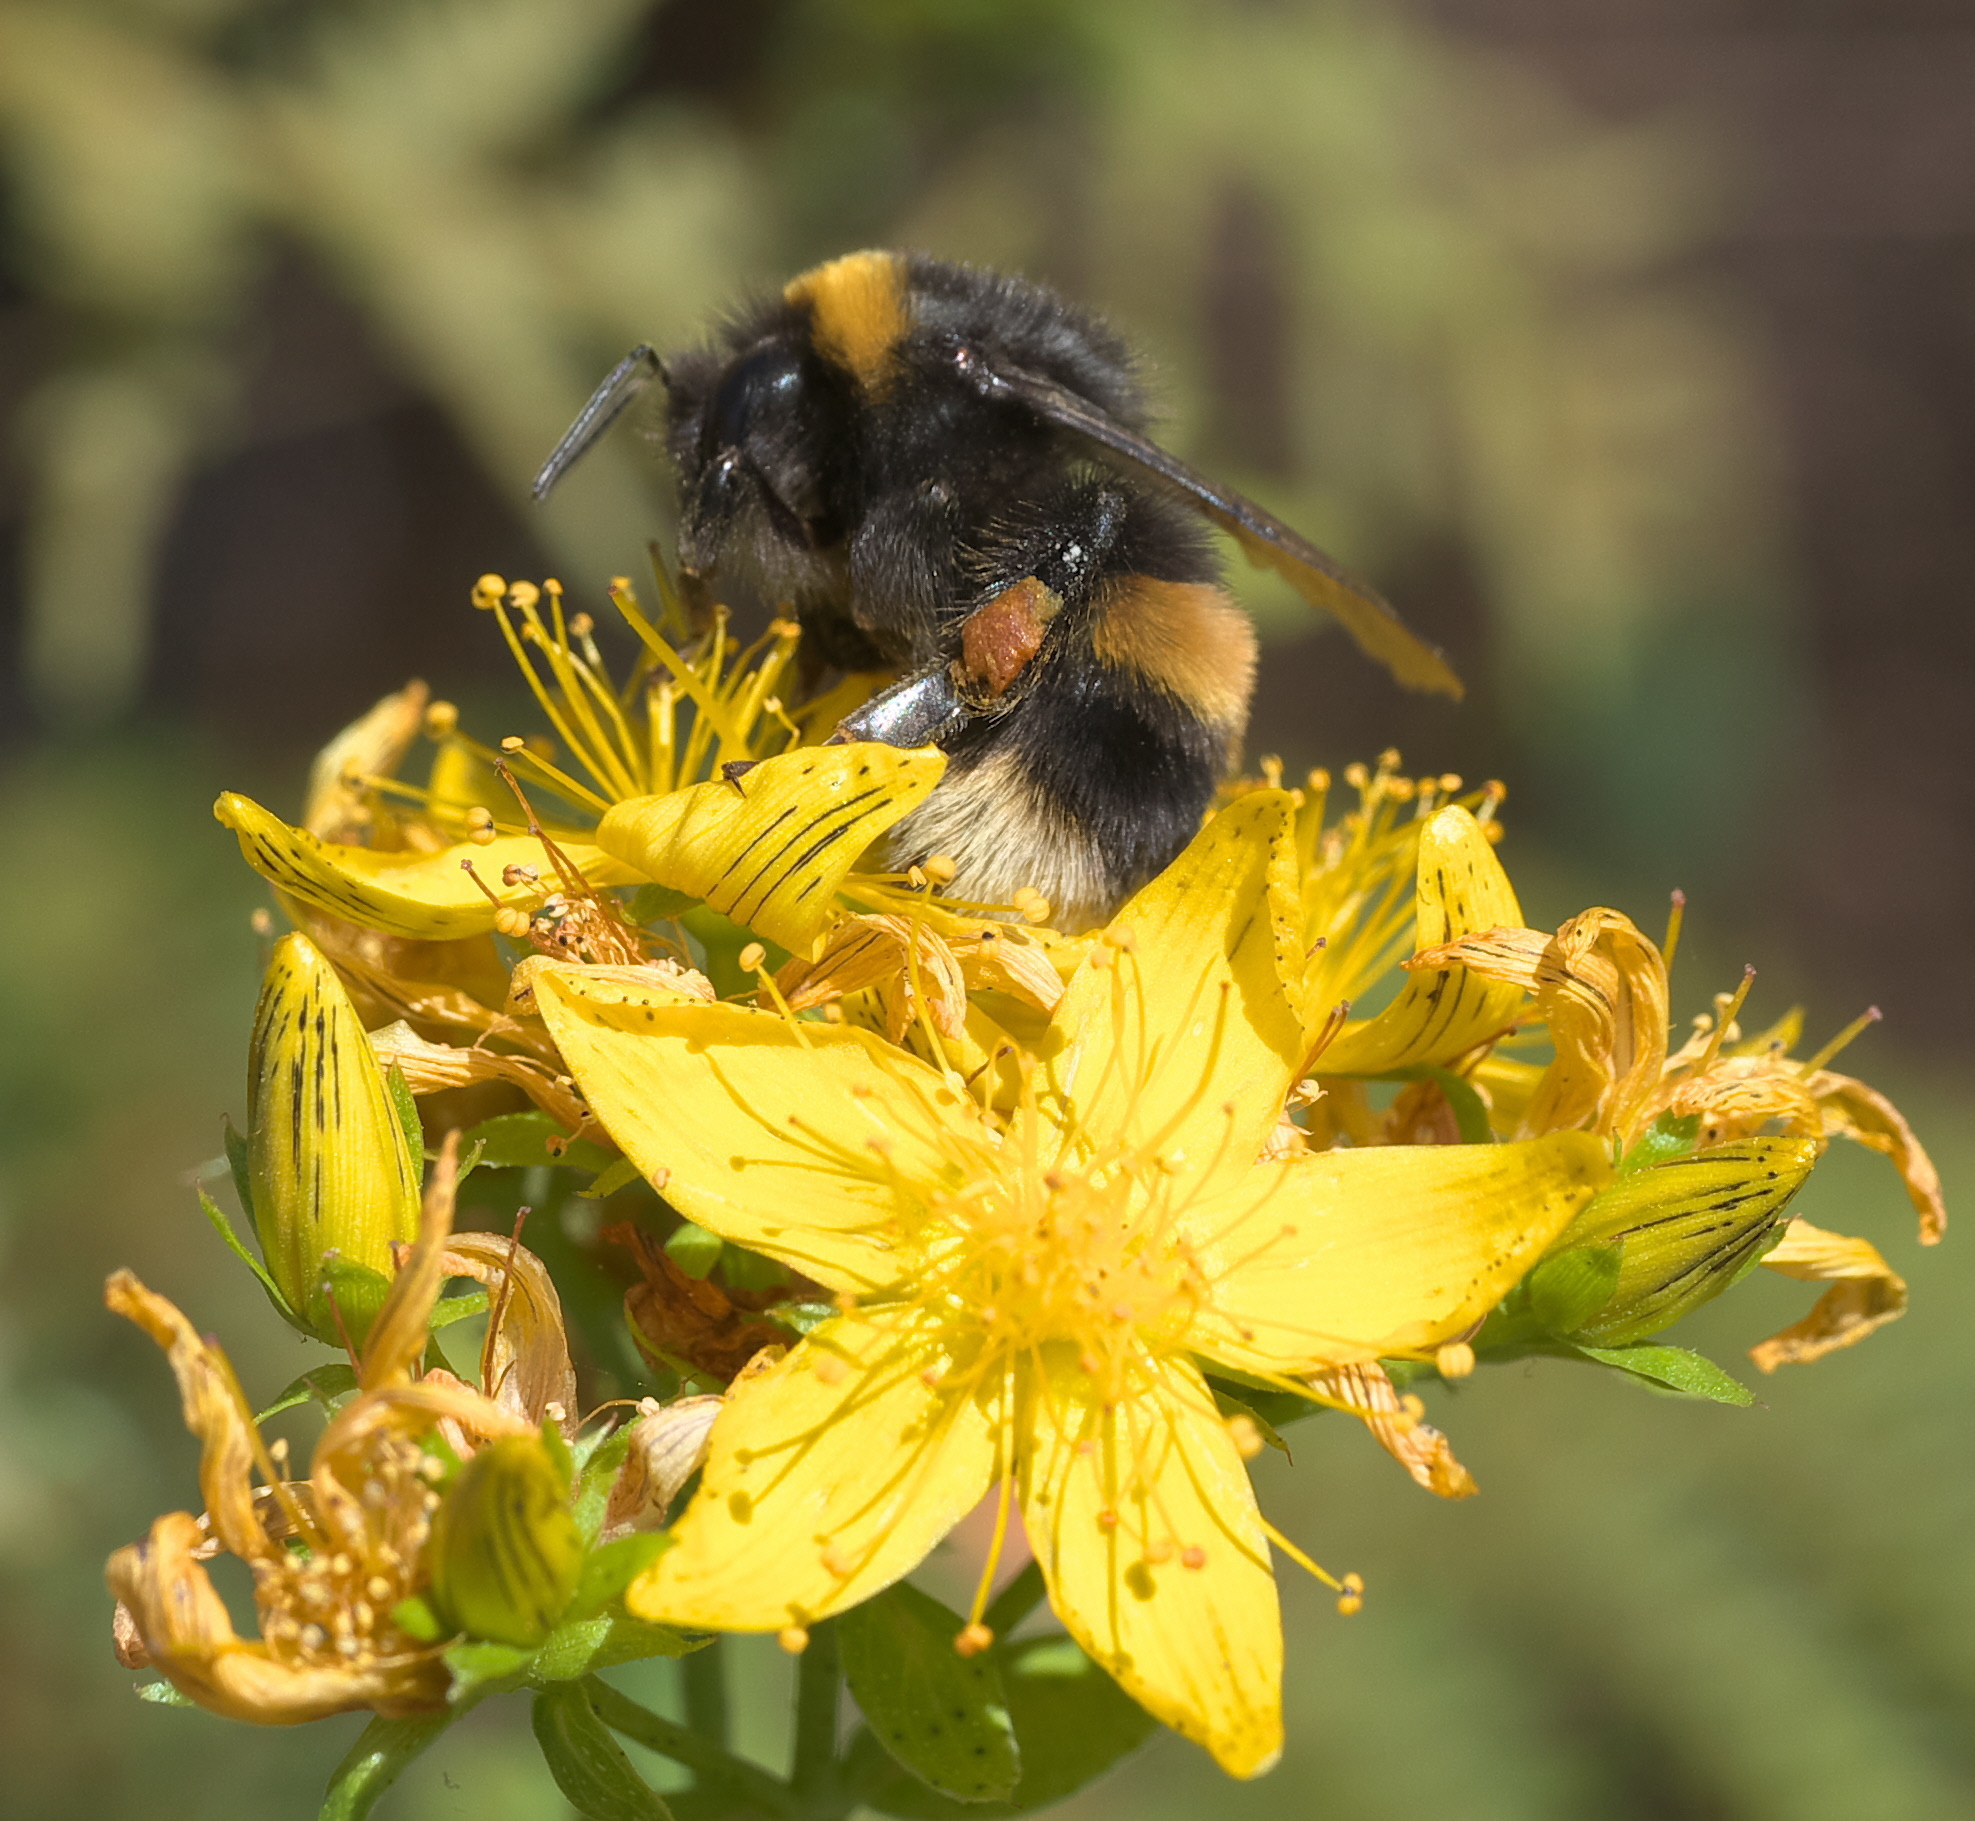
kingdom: Animalia
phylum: Arthropoda
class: Insecta
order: Hymenoptera
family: Apidae
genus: Bombus
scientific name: Bombus terrestris
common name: Buff-tailed bumblebee
